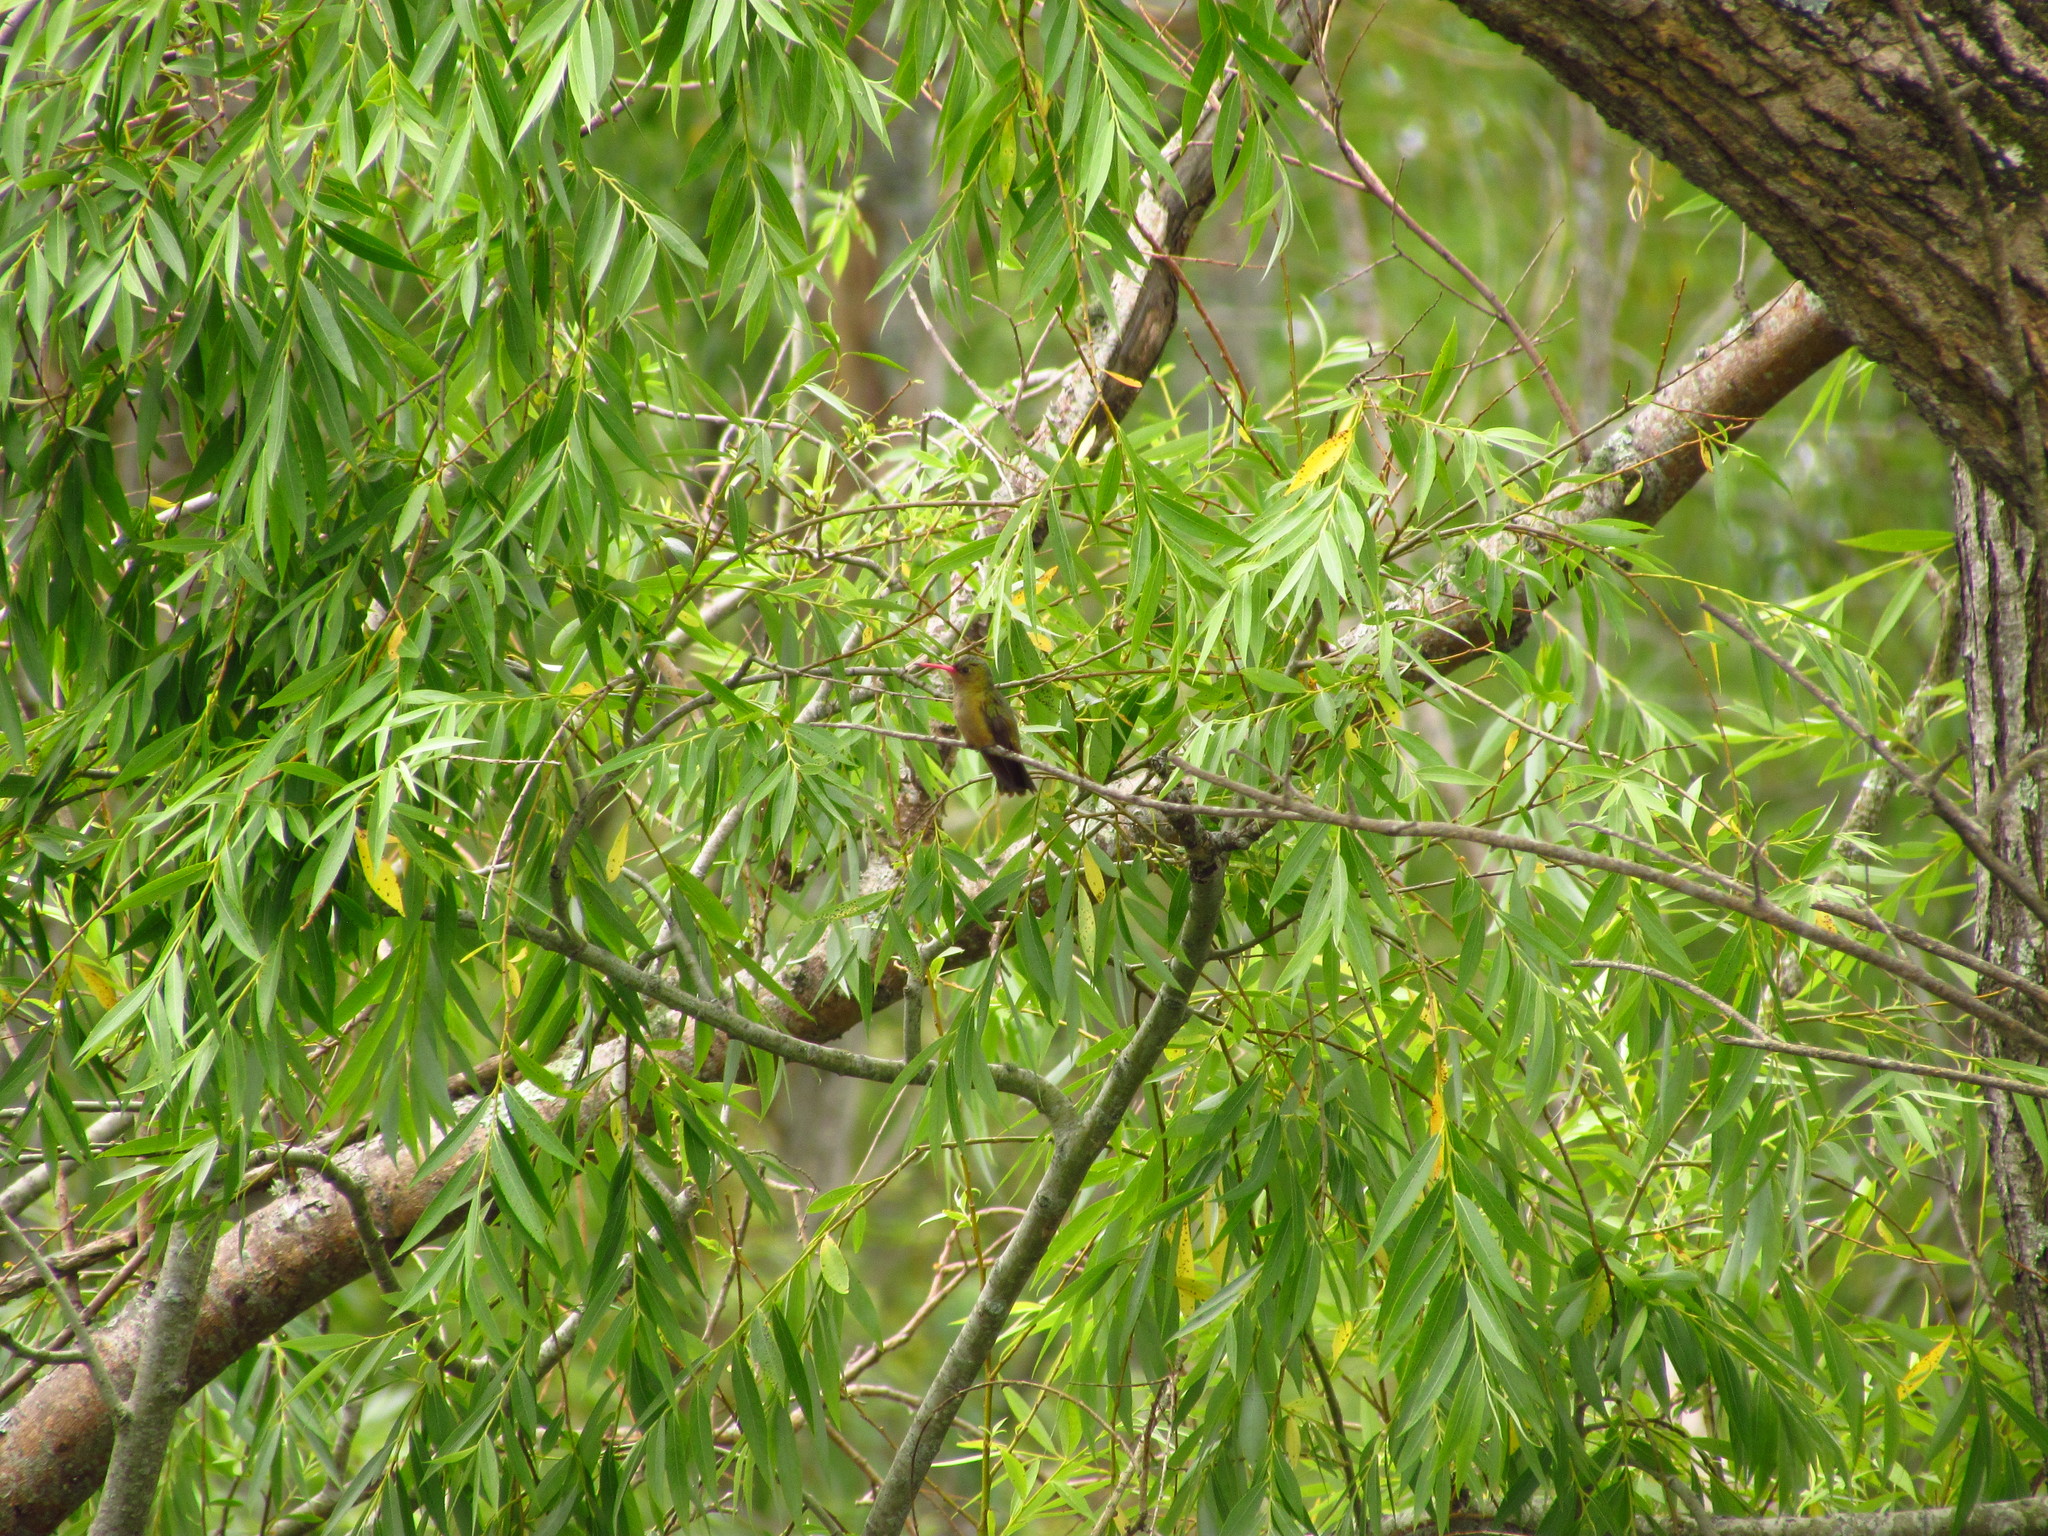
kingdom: Animalia
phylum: Chordata
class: Aves
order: Apodiformes
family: Trochilidae
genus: Hylocharis
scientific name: Hylocharis chrysura
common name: Gilded sapphire
